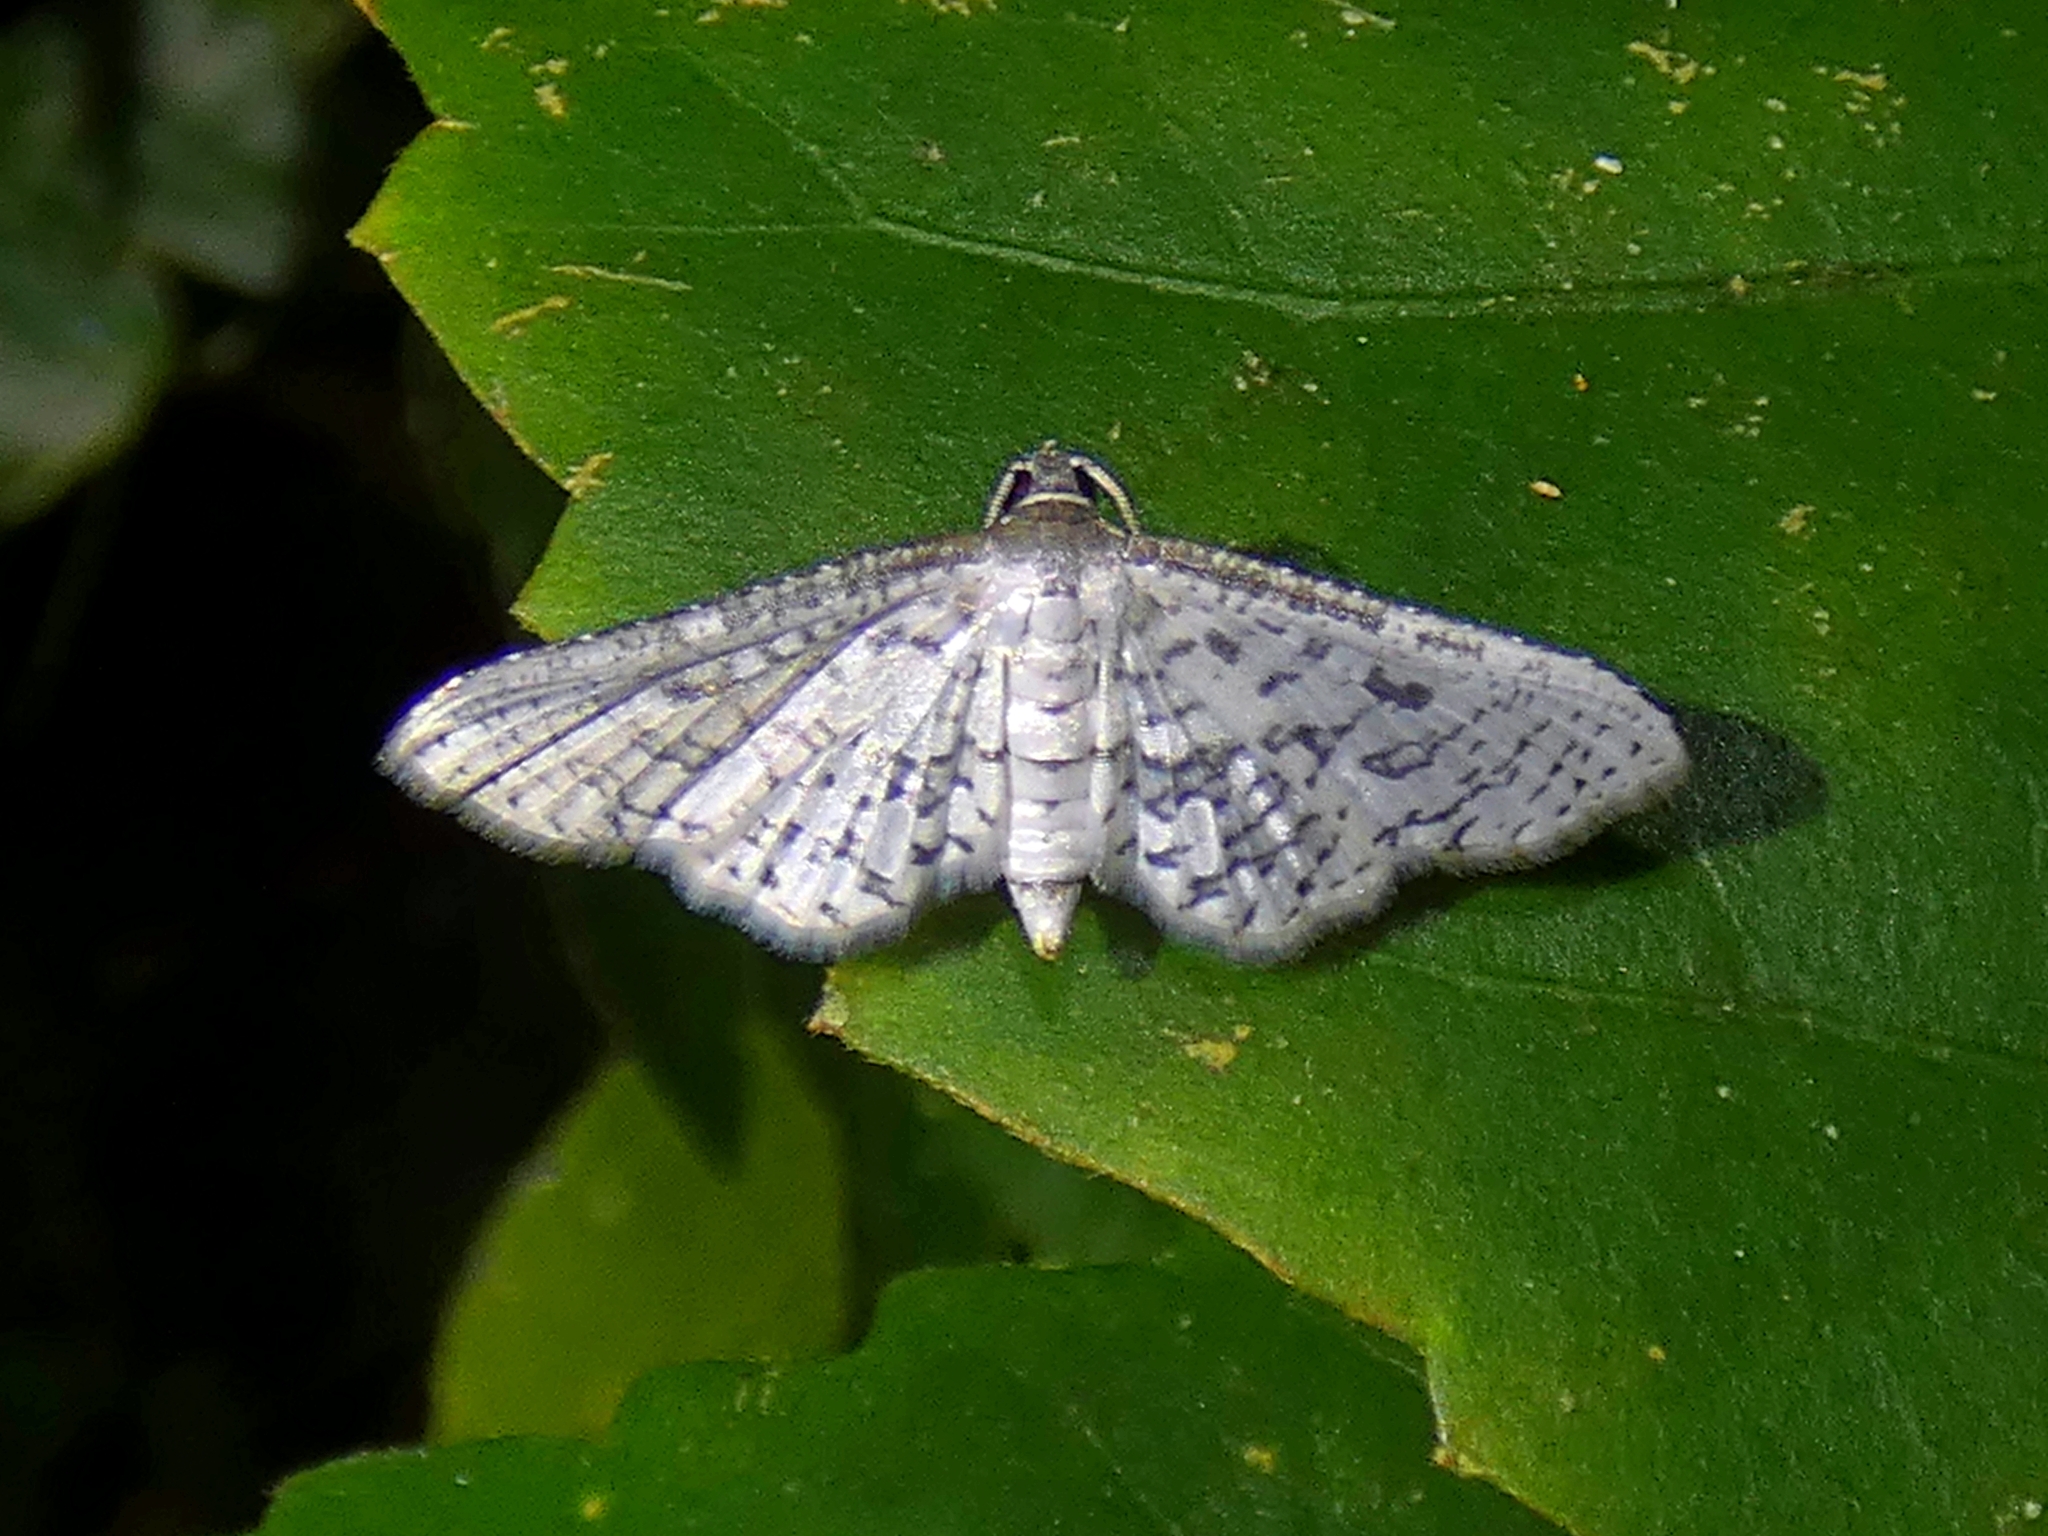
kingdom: Animalia
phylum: Arthropoda
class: Insecta
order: Lepidoptera
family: Thyrididae
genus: Calindoea
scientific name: Calindoea polygraphalis
